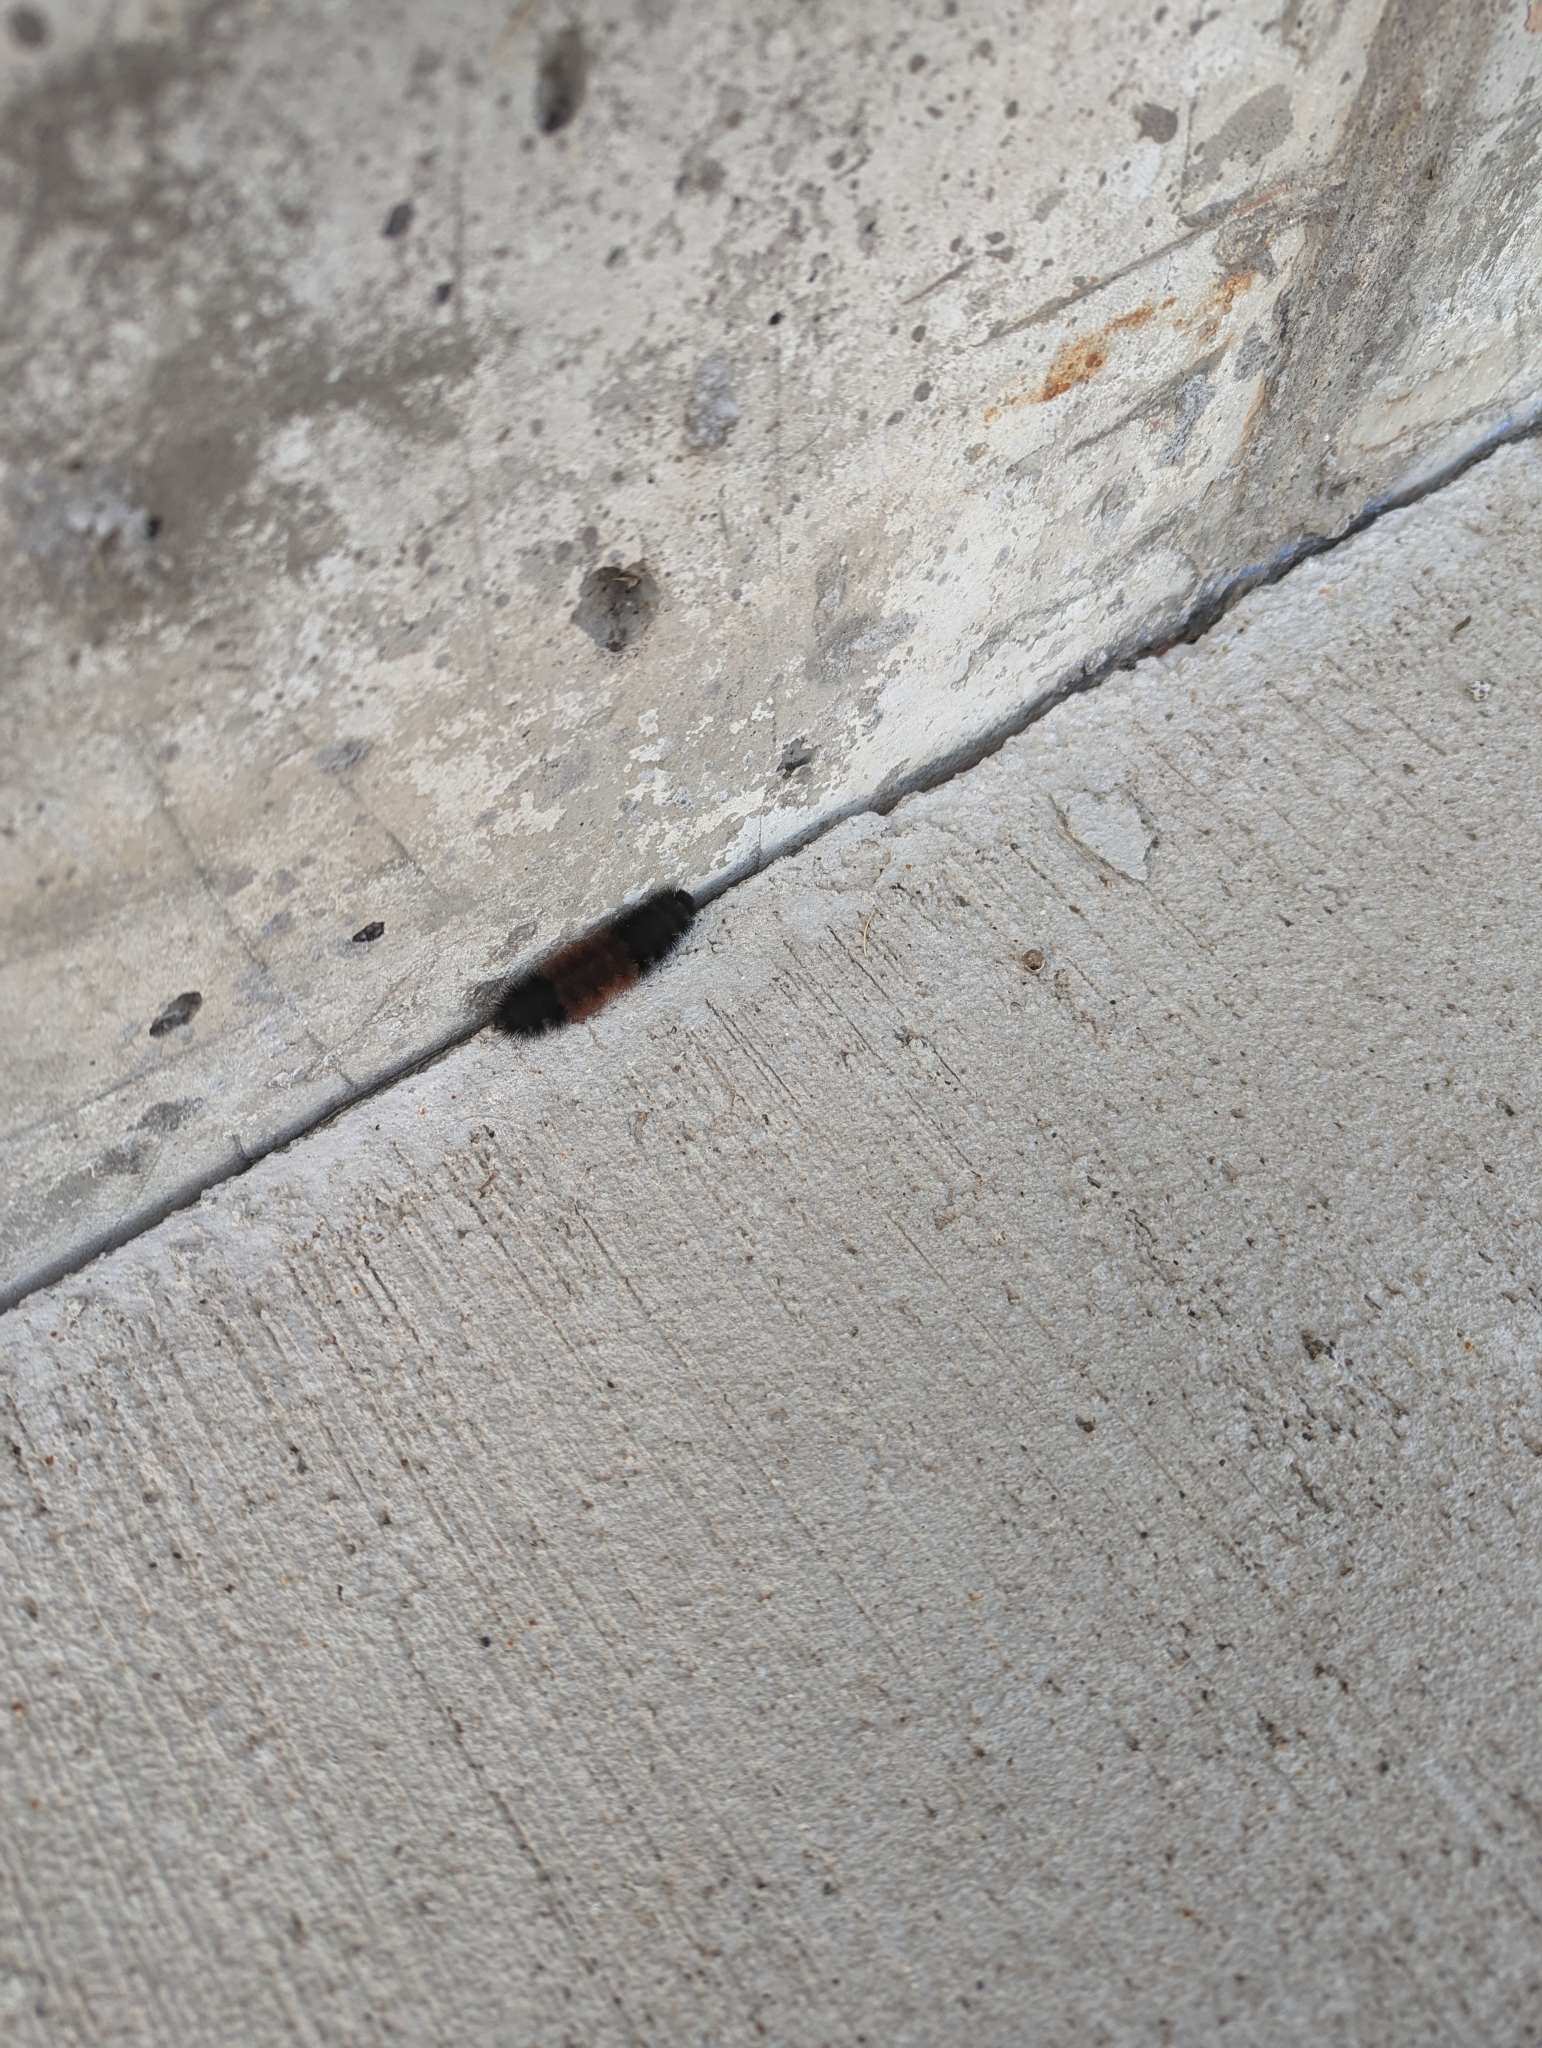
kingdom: Animalia
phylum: Arthropoda
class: Insecta
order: Lepidoptera
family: Erebidae
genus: Pyrrharctia
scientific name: Pyrrharctia isabella
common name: Isabella tiger moth
